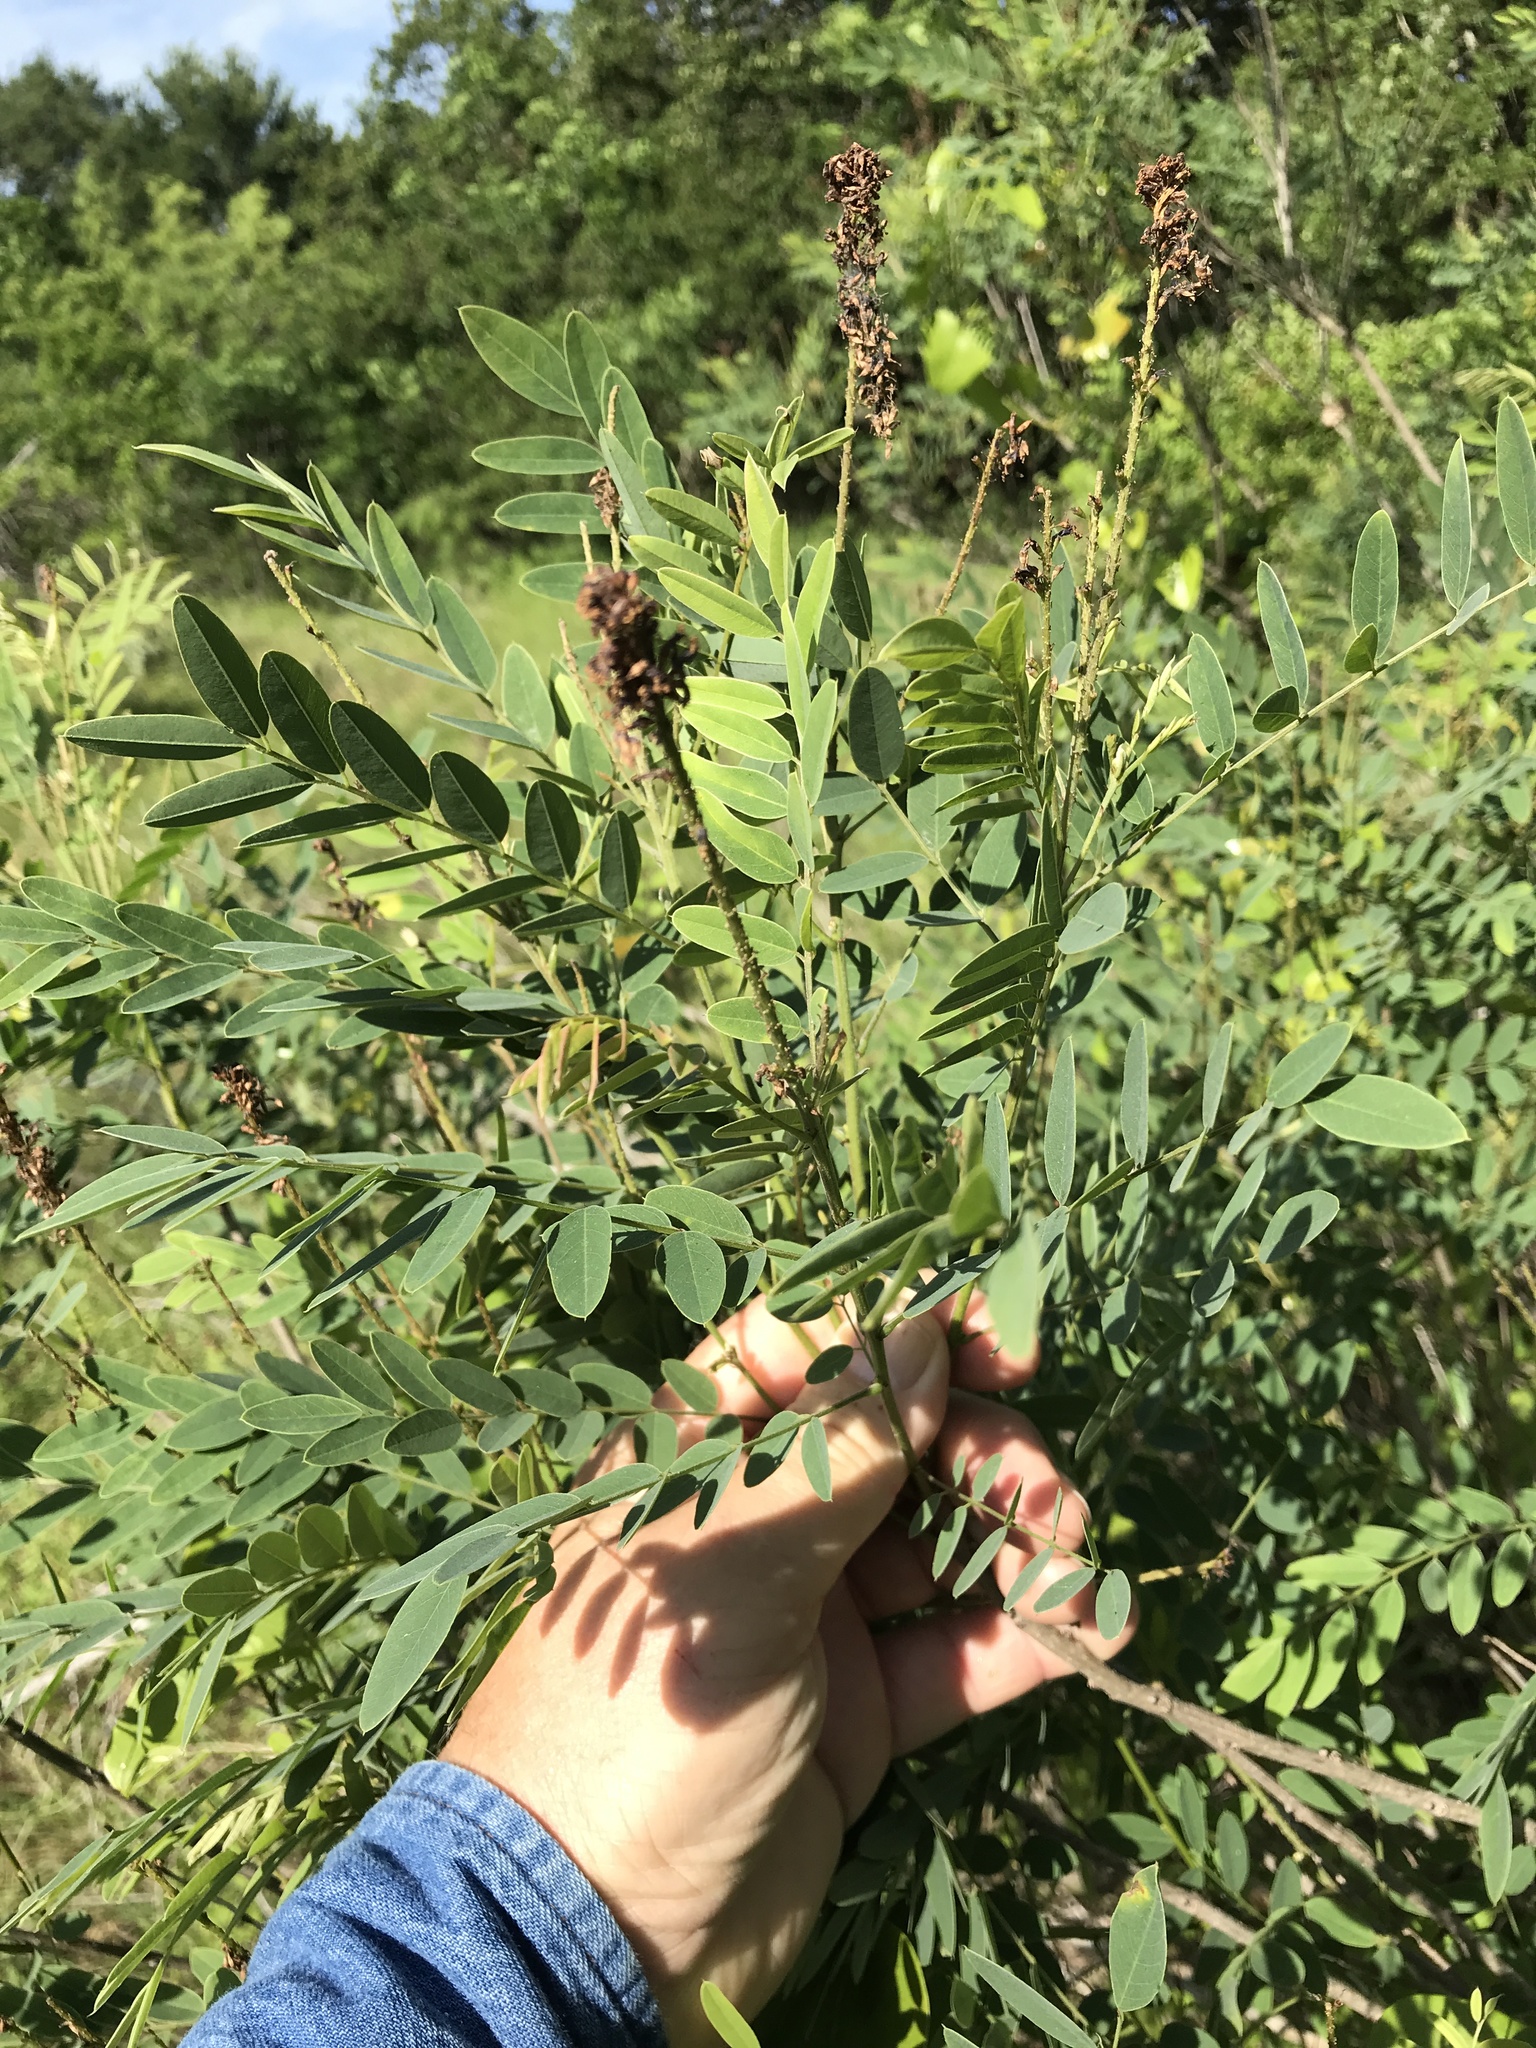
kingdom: Plantae
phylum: Tracheophyta
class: Magnoliopsida
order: Fabales
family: Fabaceae
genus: Amorpha
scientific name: Amorpha fruticosa
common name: False indigo
